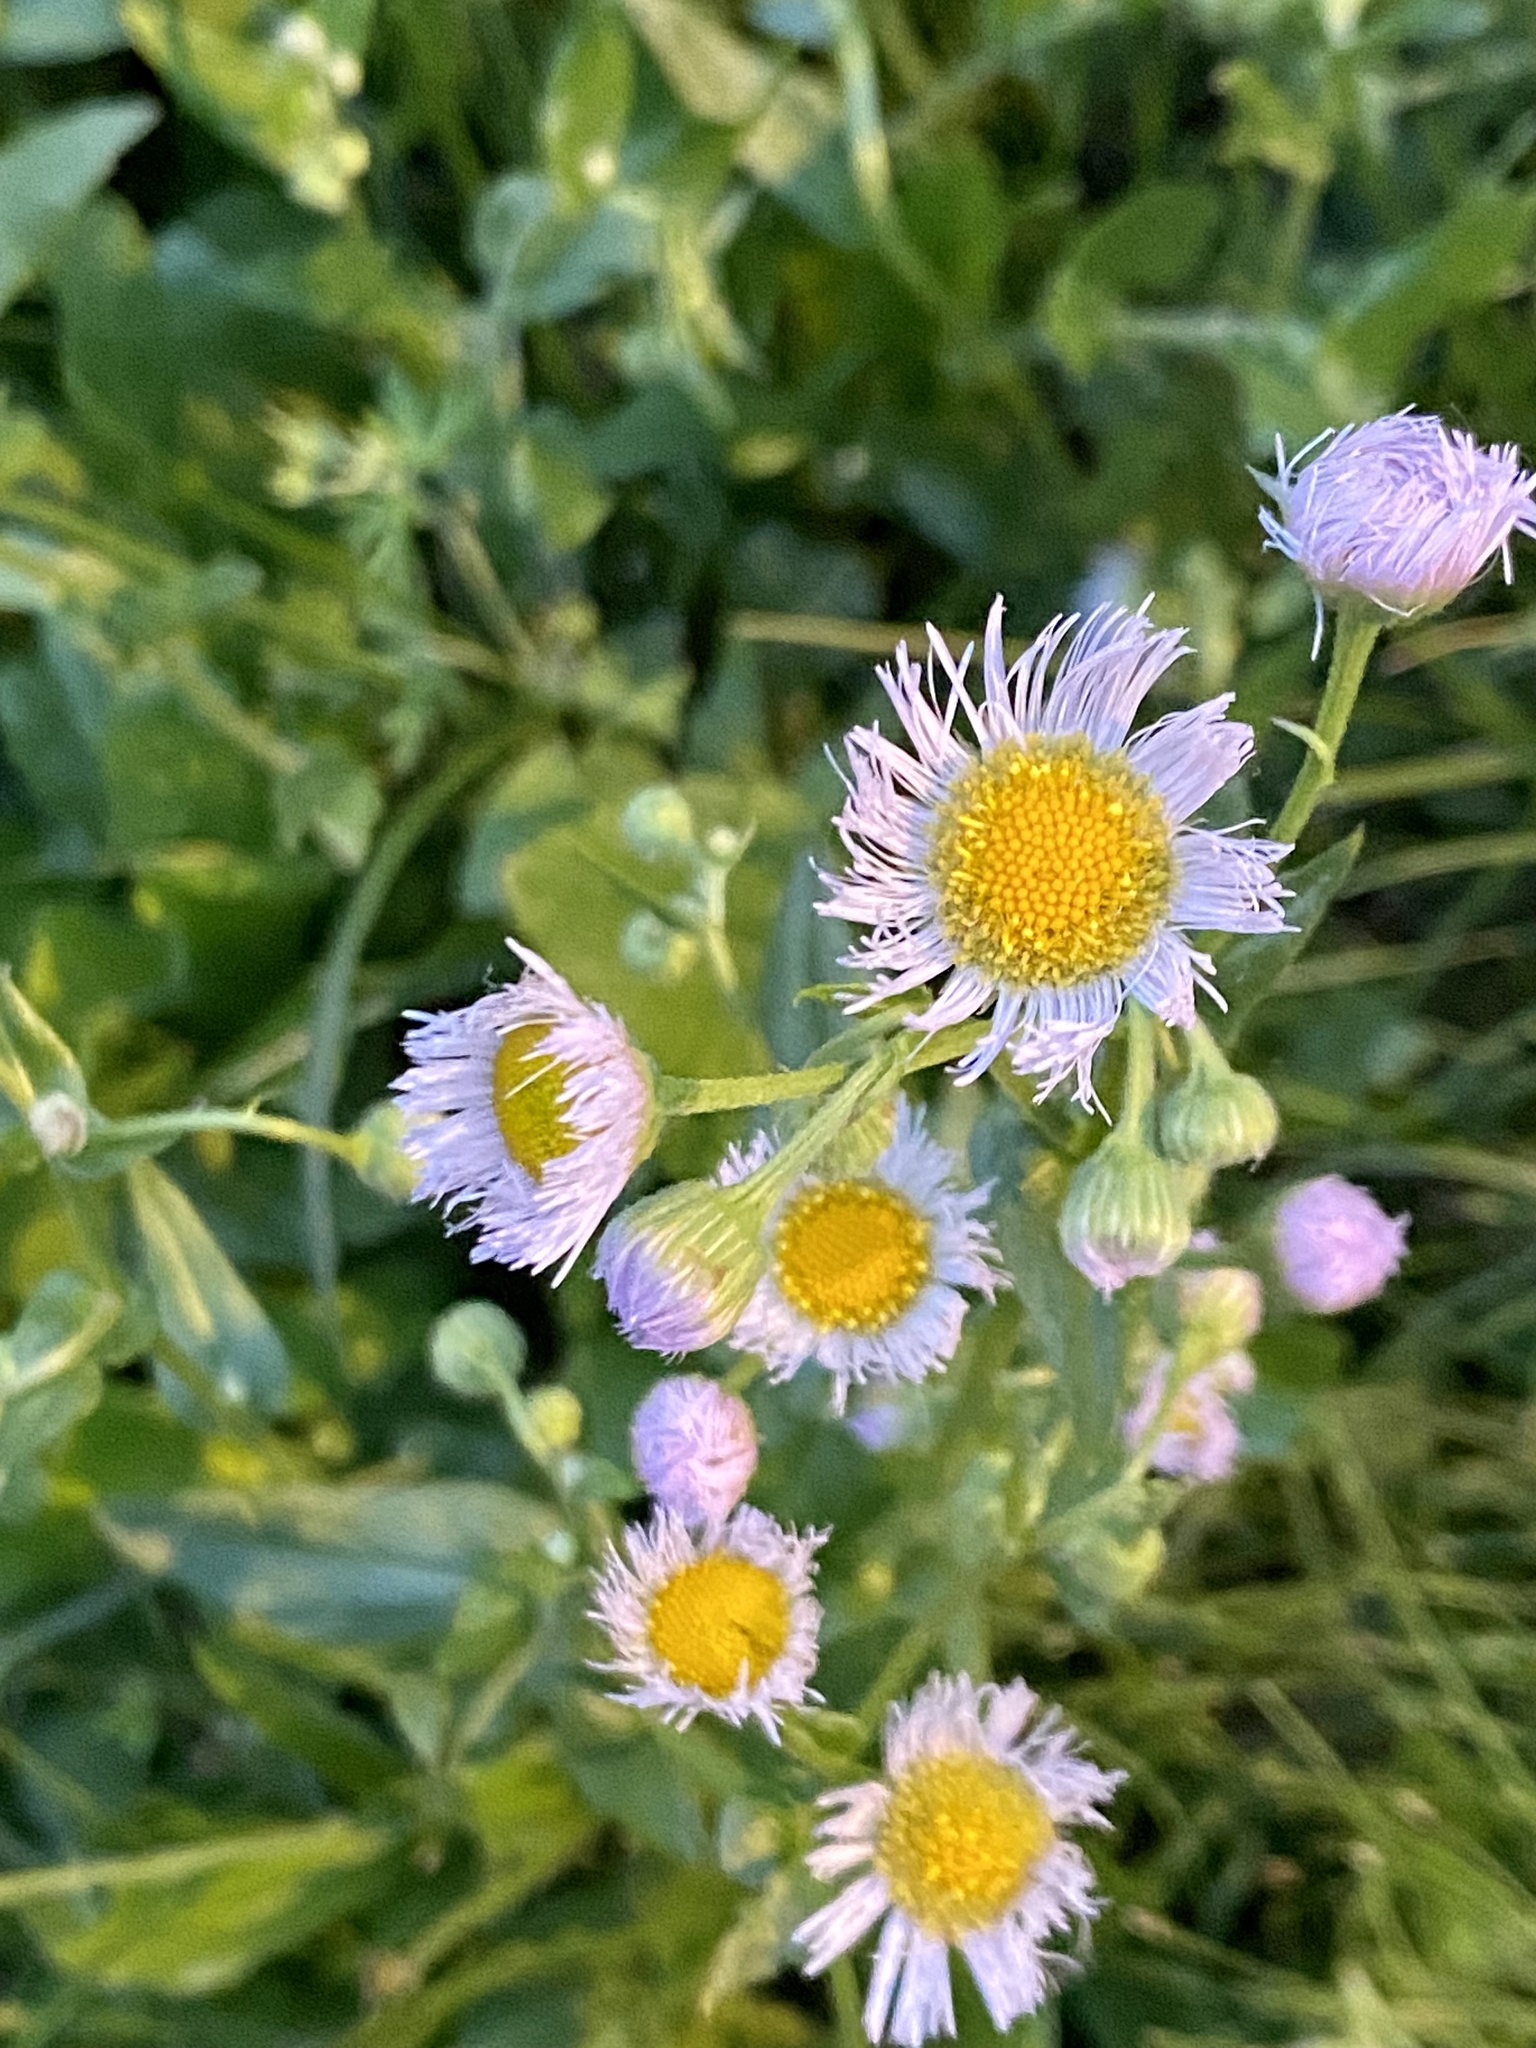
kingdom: Plantae
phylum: Tracheophyta
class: Magnoliopsida
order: Asterales
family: Asteraceae
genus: Erigeron
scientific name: Erigeron philadelphicus
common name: Robin's-plantain
